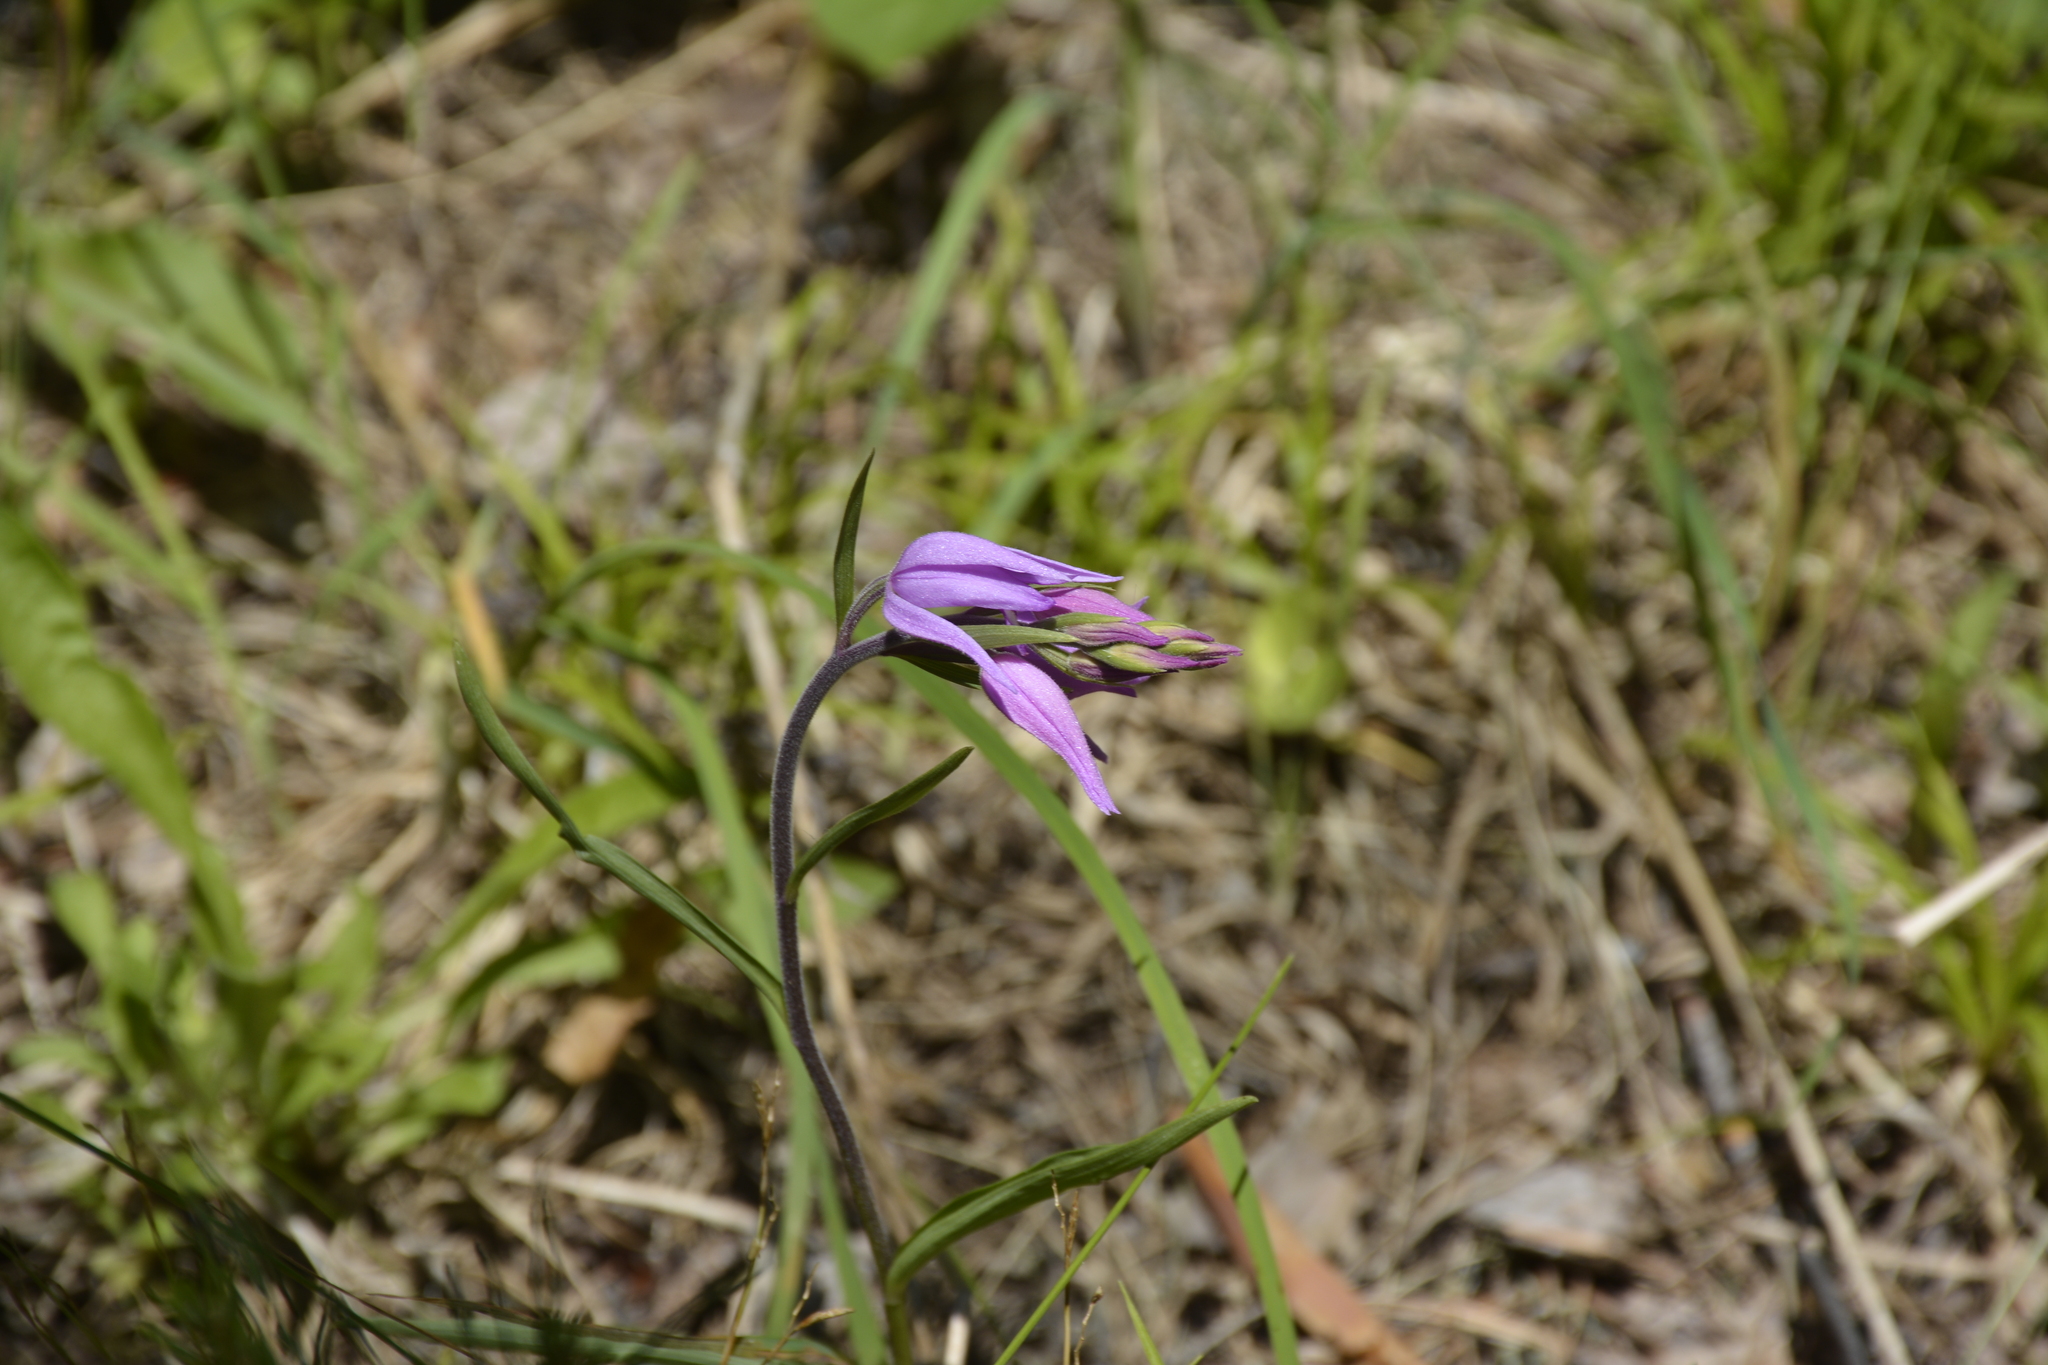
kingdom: Plantae
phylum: Tracheophyta
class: Liliopsida
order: Asparagales
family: Orchidaceae
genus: Cephalanthera
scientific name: Cephalanthera rubra
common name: Red helleborine
